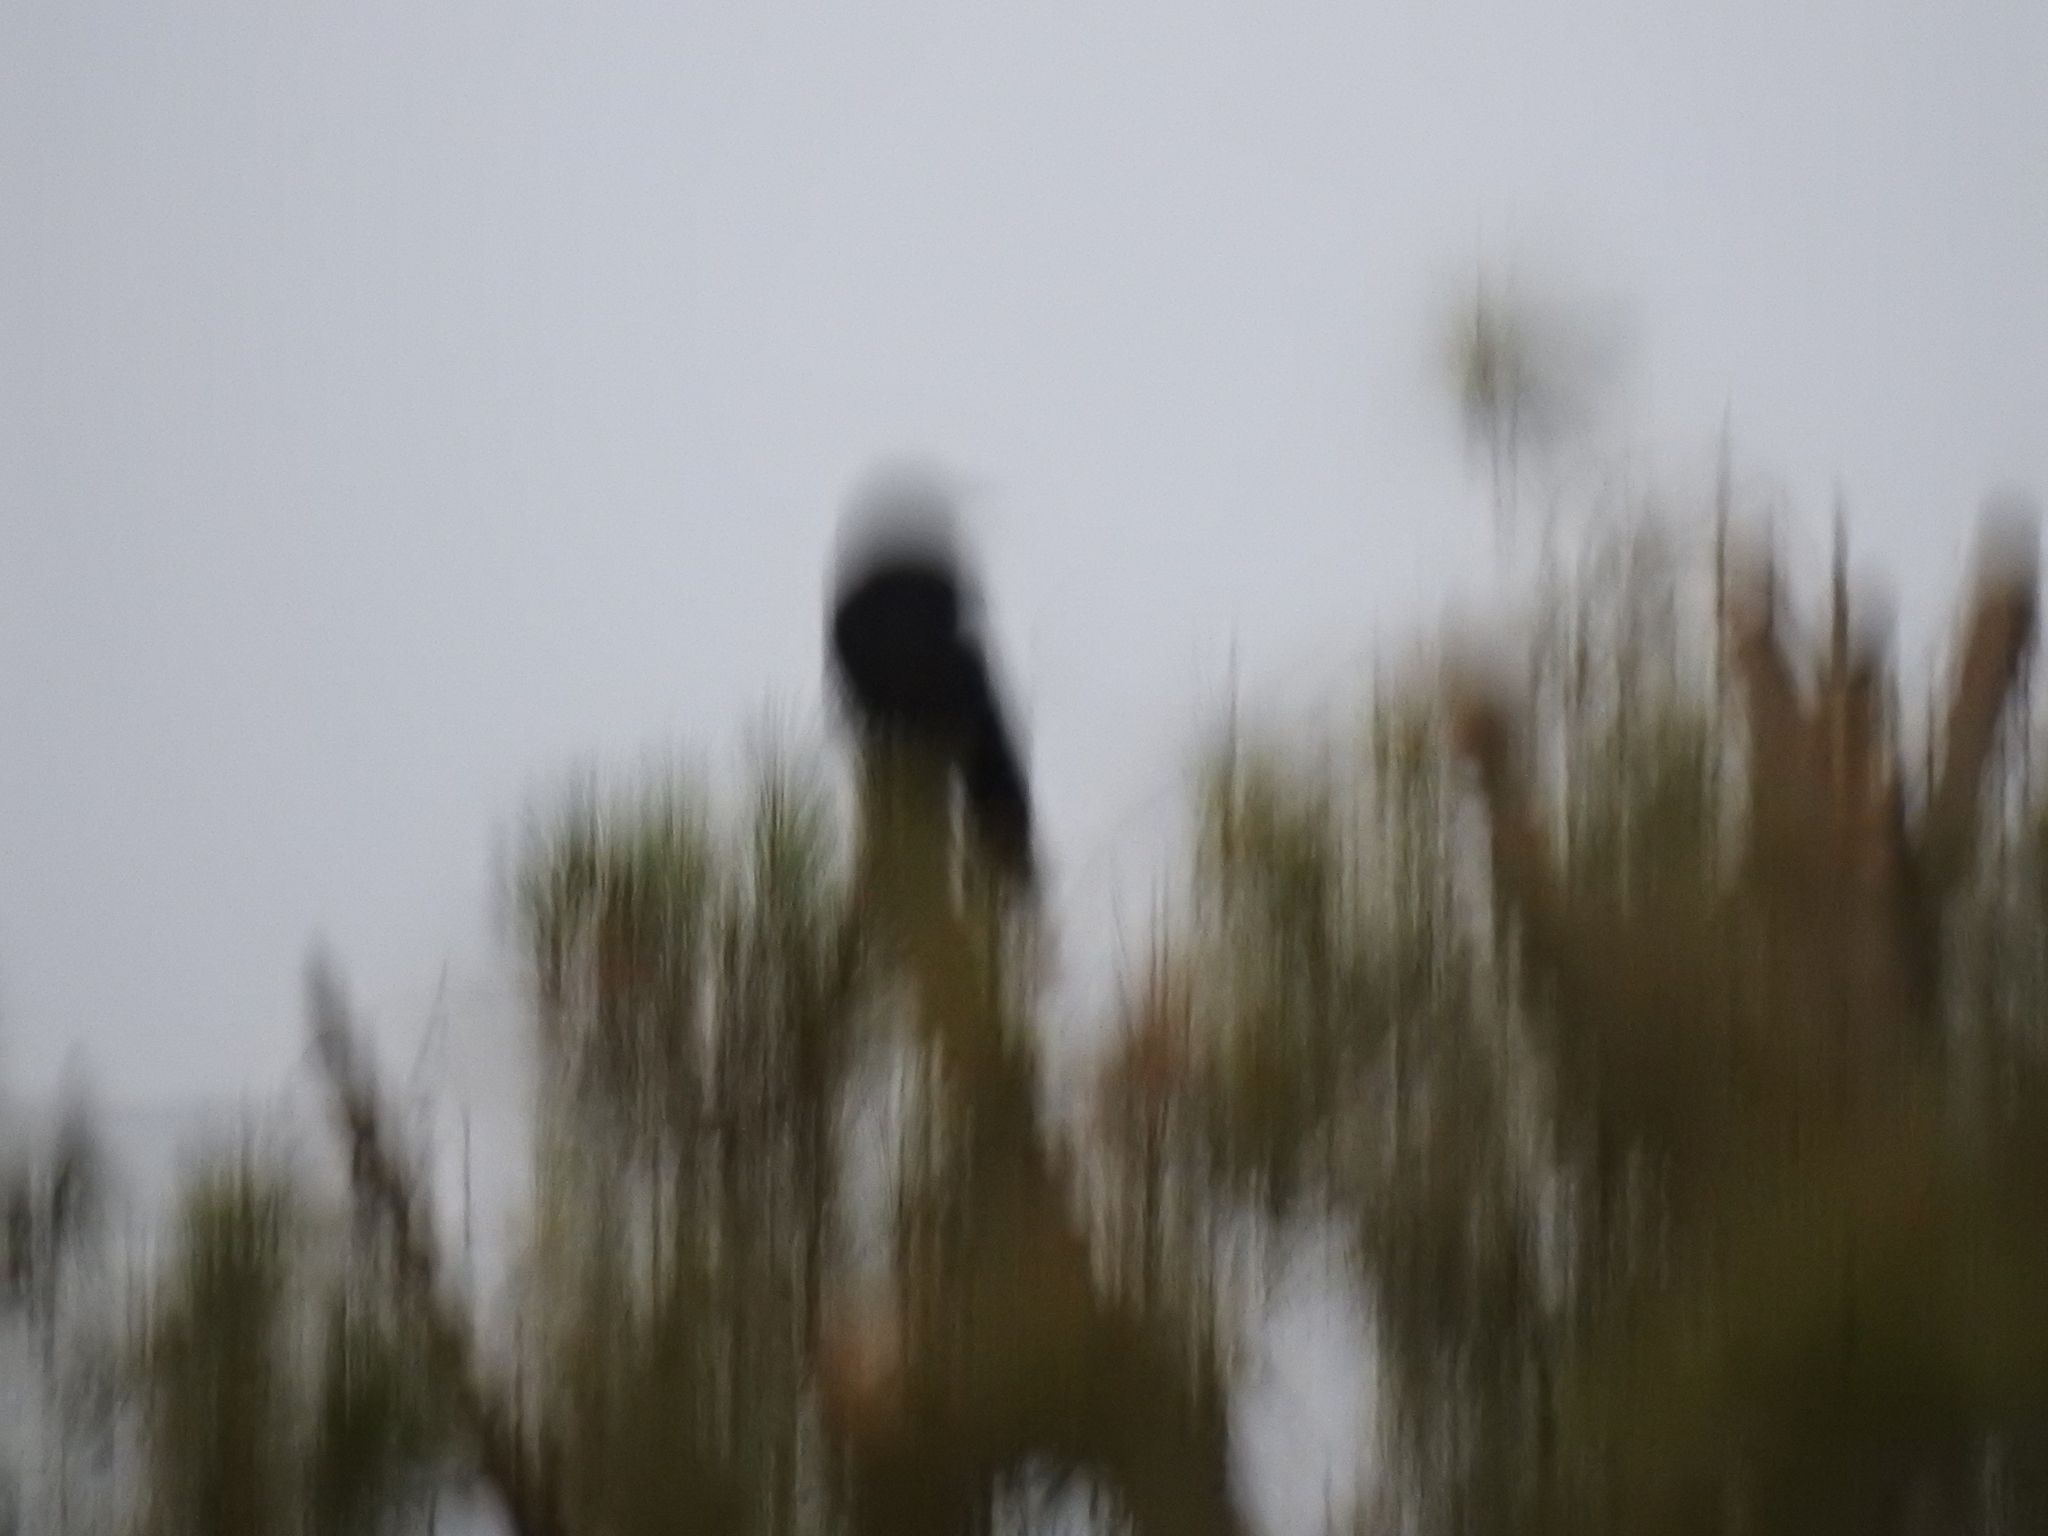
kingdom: Animalia
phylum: Chordata
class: Aves
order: Passeriformes
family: Corvidae
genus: Corvus
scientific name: Corvus brachyrhynchos
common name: American crow
